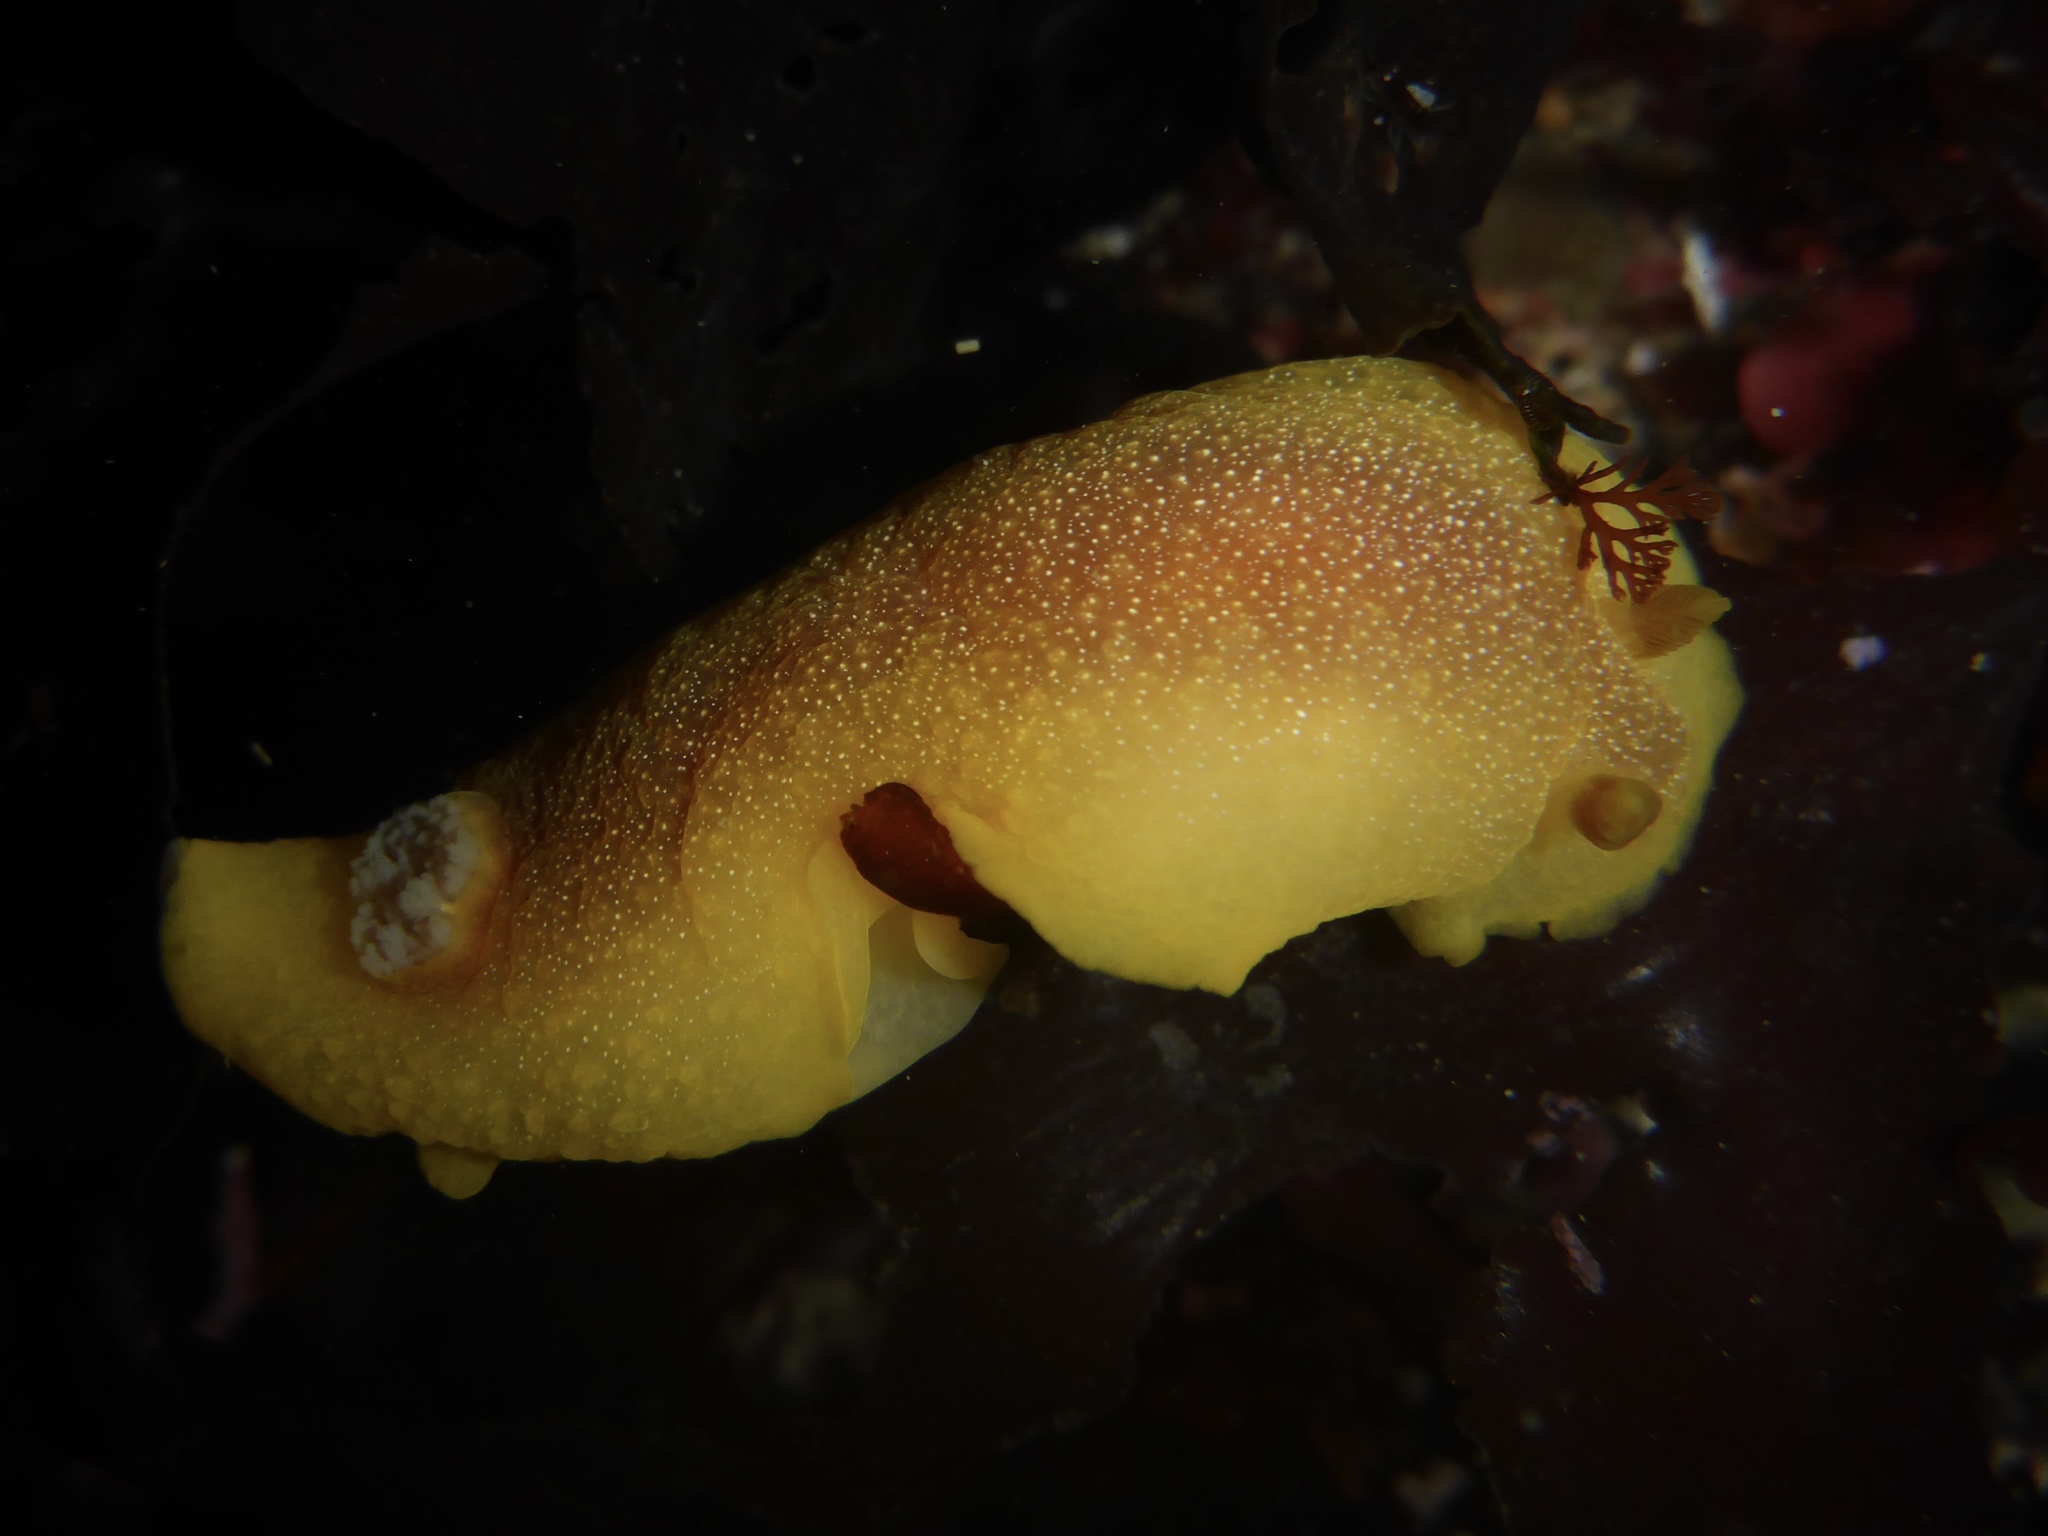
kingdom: Animalia
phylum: Mollusca
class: Gastropoda
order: Nudibranchia
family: Dendrodorididae
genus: Doriopsilla
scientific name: Doriopsilla albopunctata
